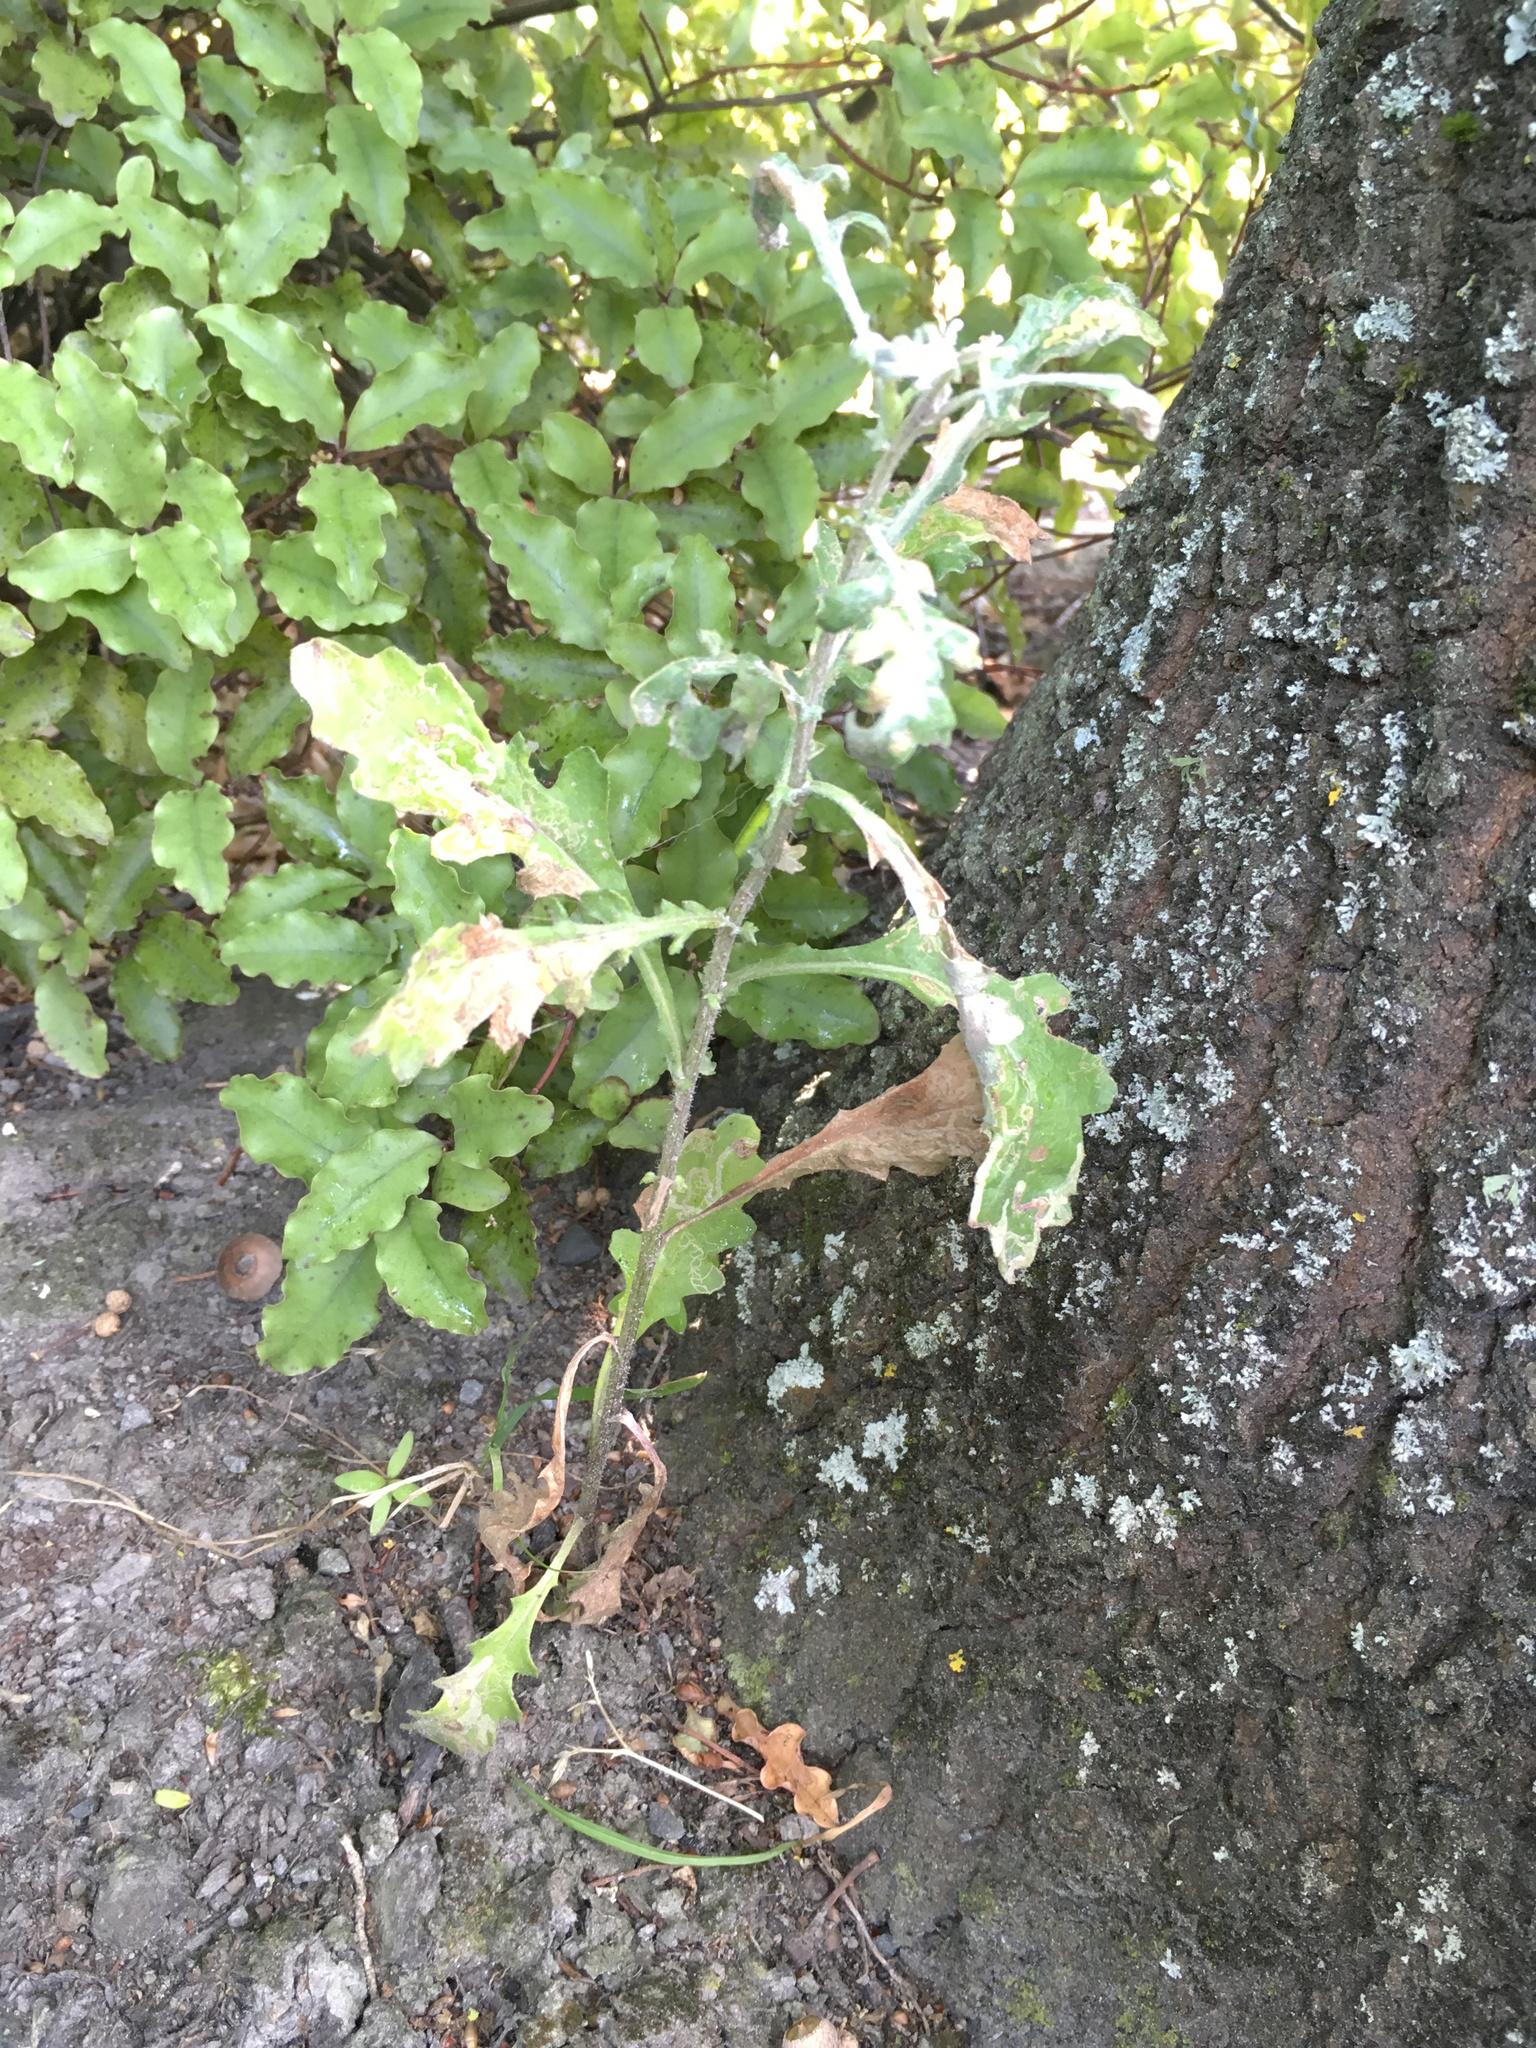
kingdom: Plantae
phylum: Tracheophyta
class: Magnoliopsida
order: Asterales
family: Asteraceae
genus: Senecio
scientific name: Senecio glomeratus
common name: Cutleaf burnweed
